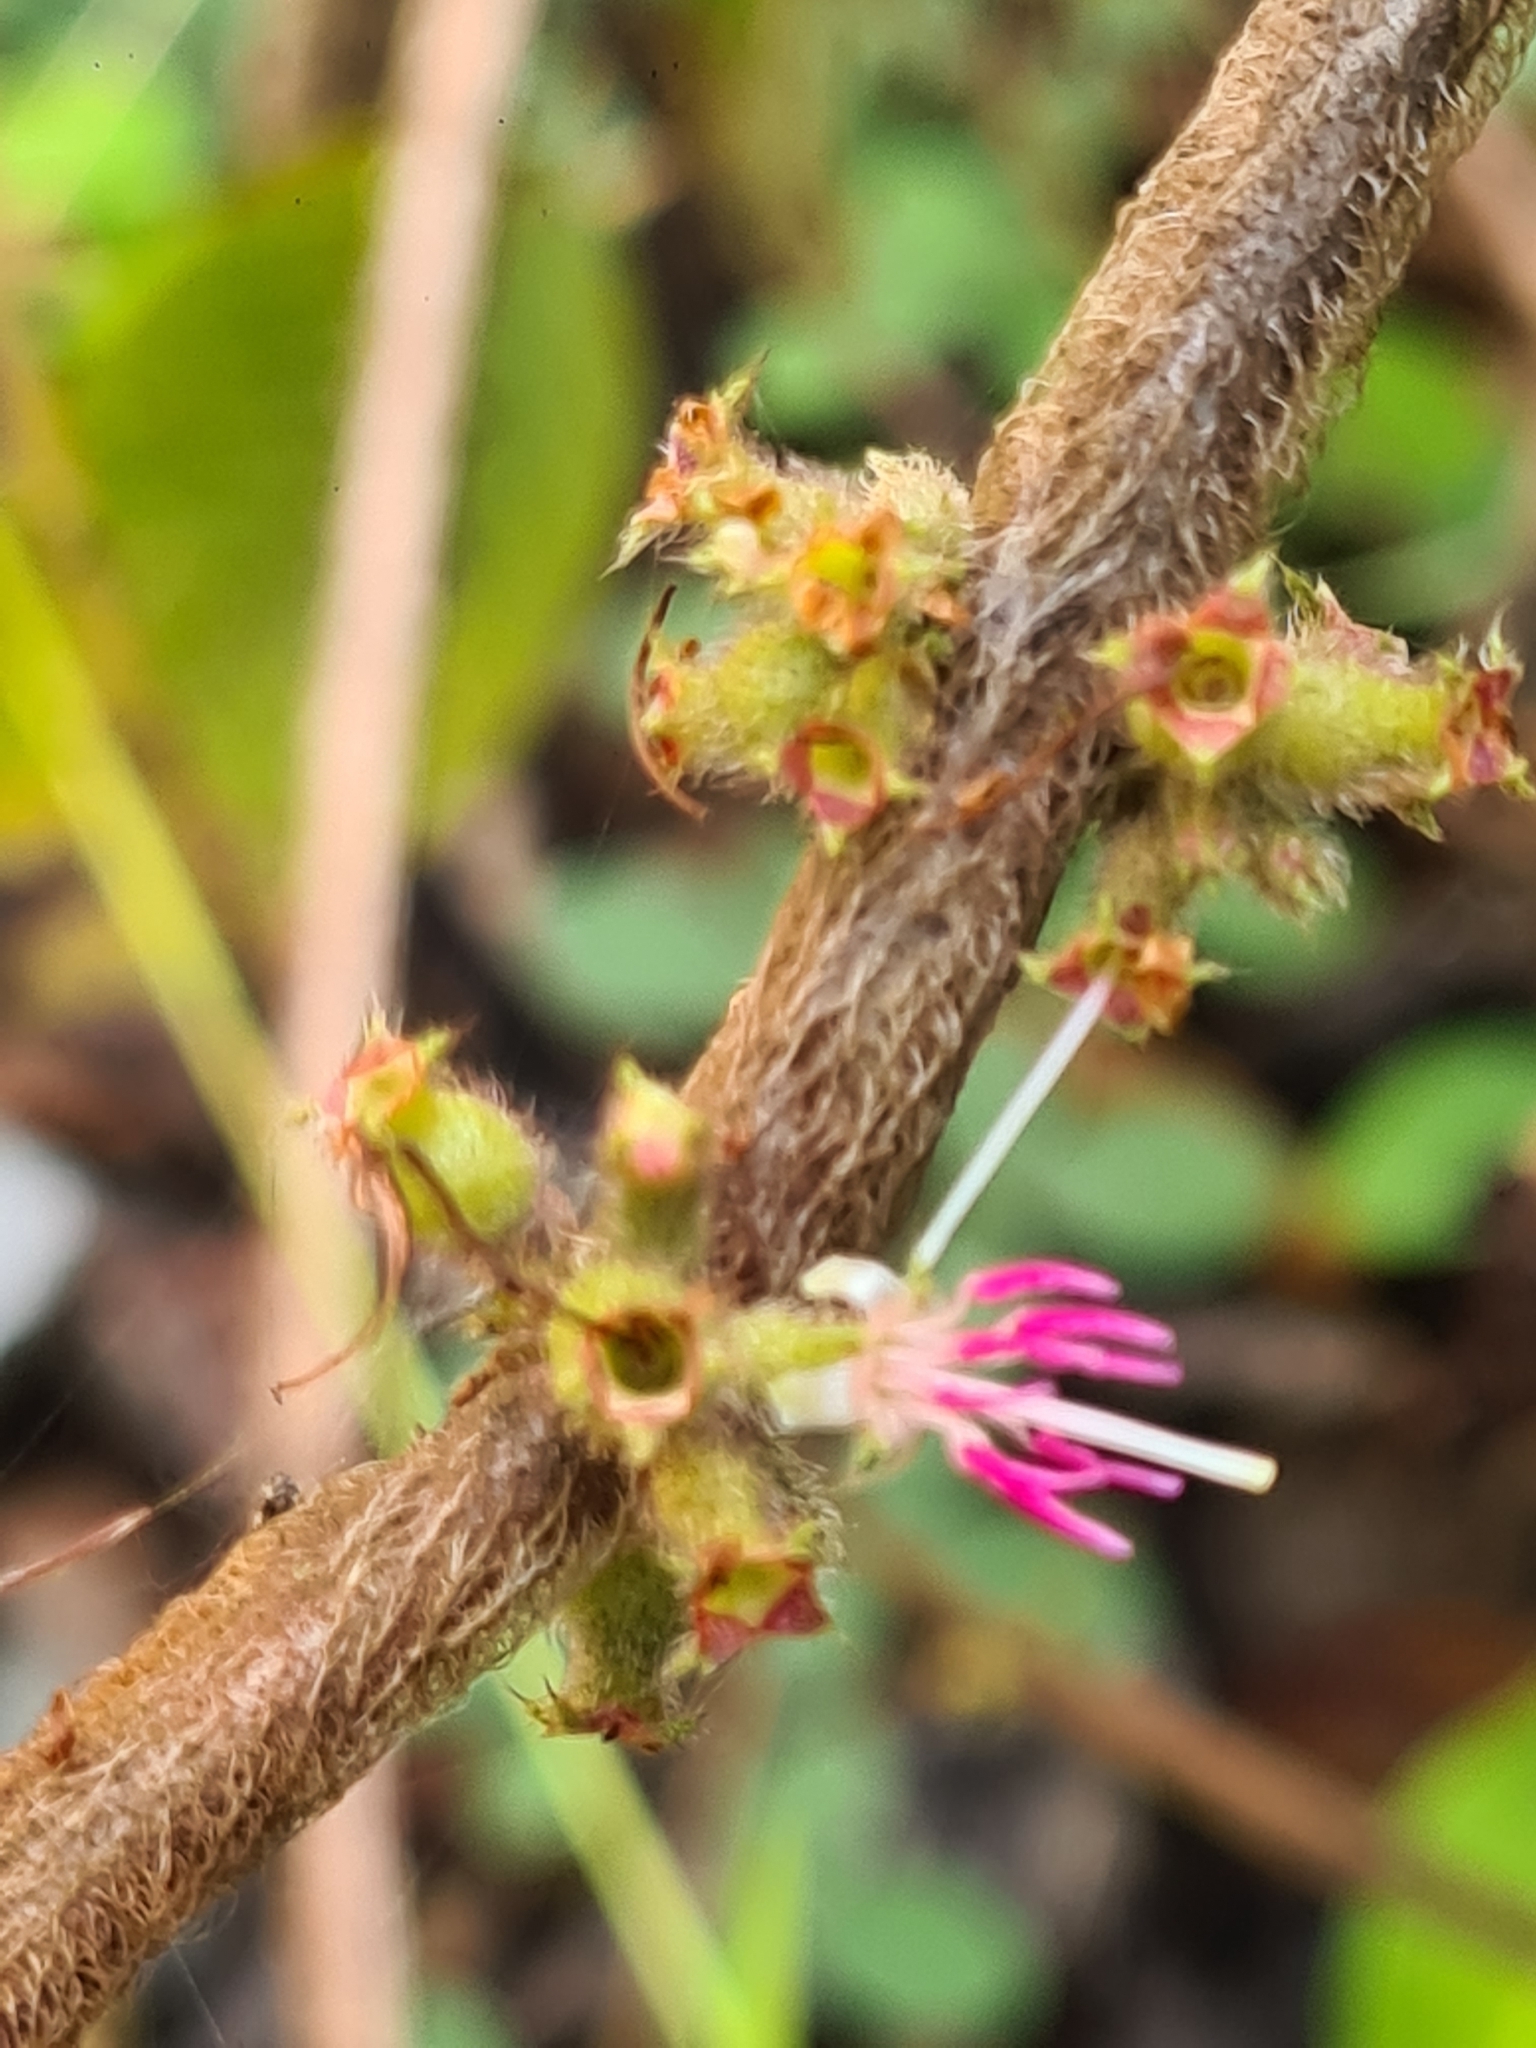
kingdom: Plantae
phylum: Tracheophyta
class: Magnoliopsida
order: Myrtales
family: Melastomataceae
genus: Miconia
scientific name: Miconia rubra
